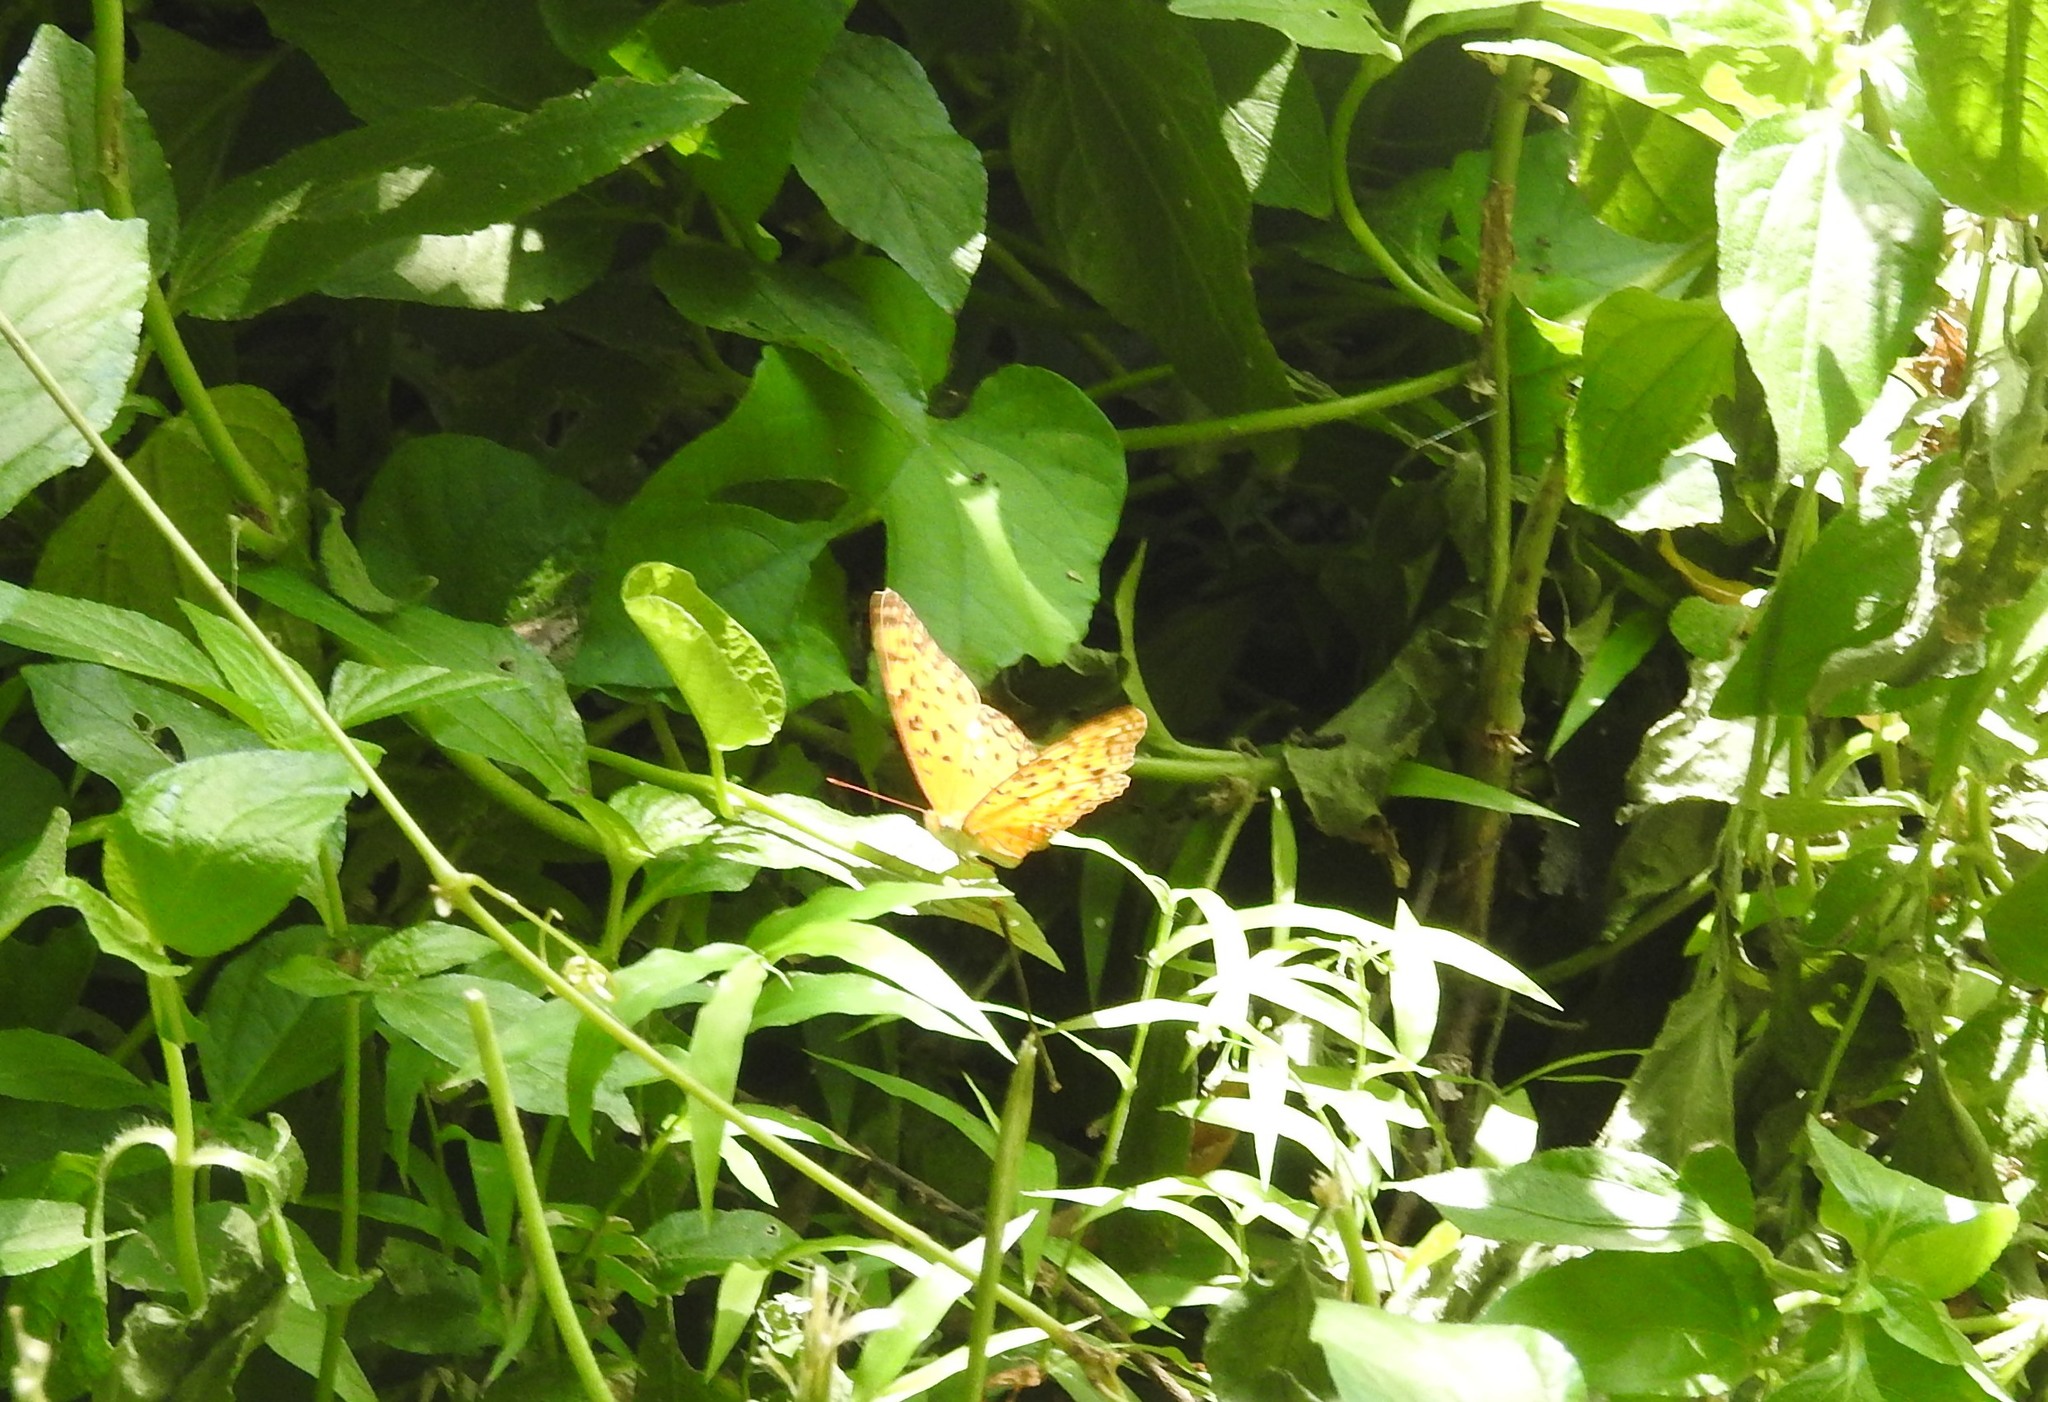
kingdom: Animalia
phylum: Arthropoda
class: Insecta
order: Lepidoptera
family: Nymphalidae
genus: Phalanta
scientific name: Phalanta phalantha
